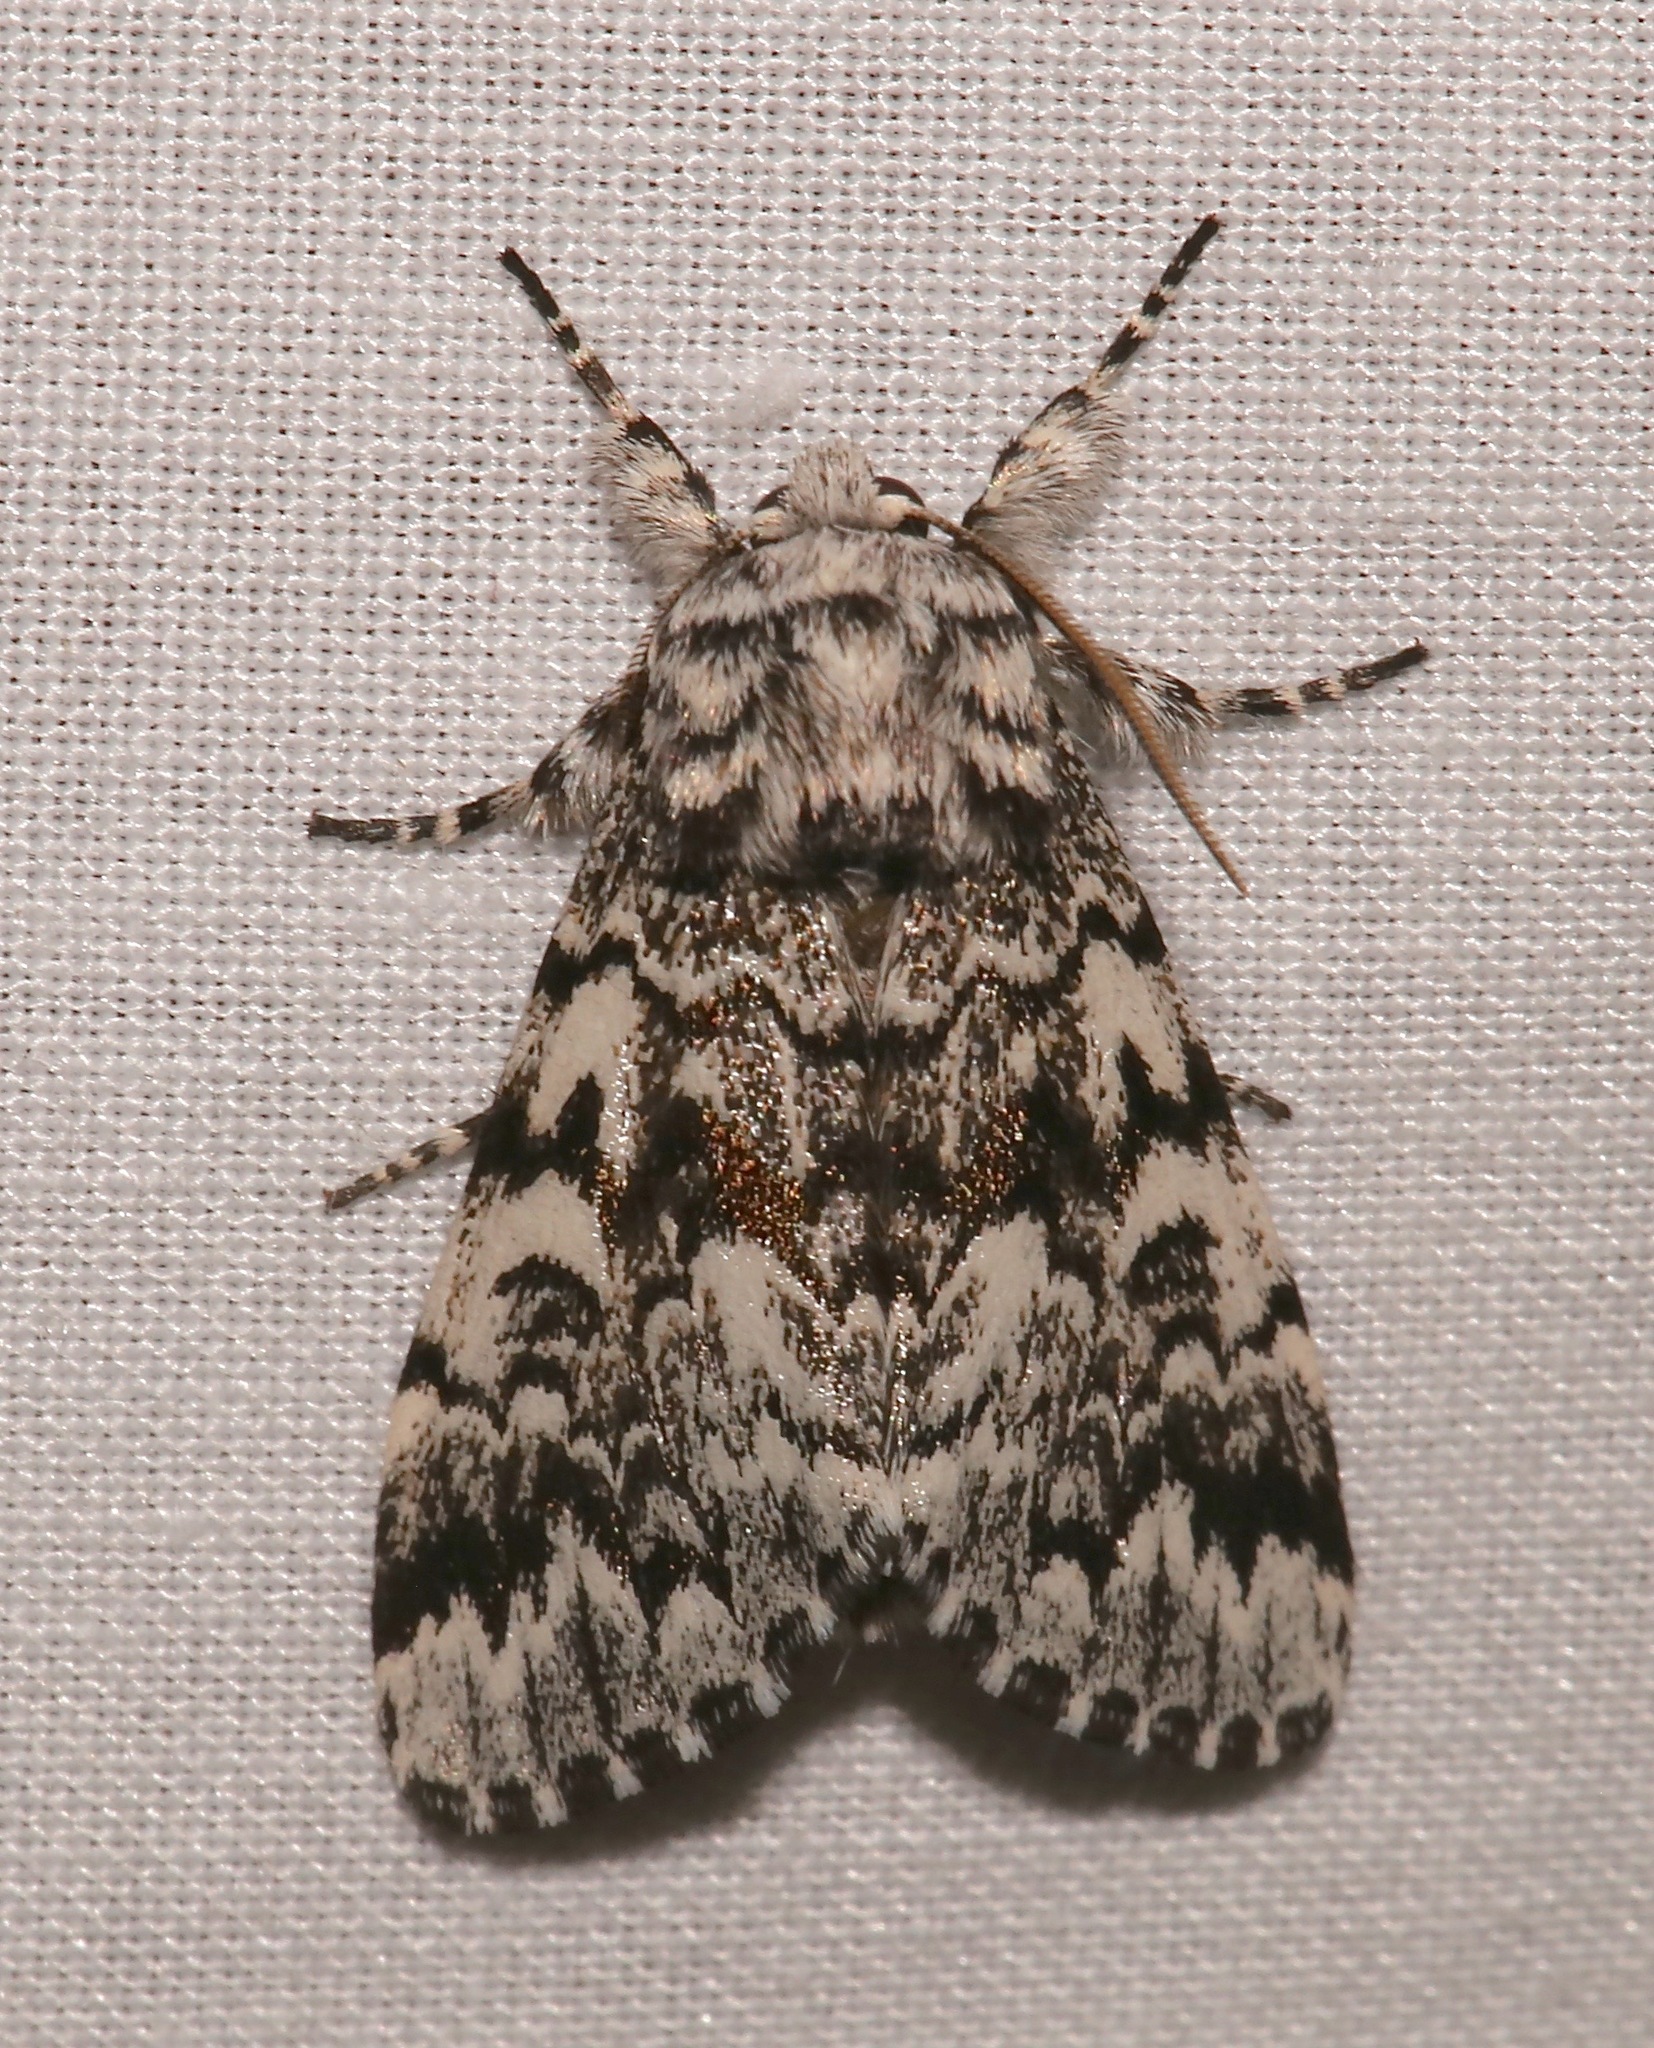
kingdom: Animalia
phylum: Arthropoda
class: Insecta
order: Lepidoptera
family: Noctuidae
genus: Panthea
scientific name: Panthea acronyctoides
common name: Black zigzag moth
